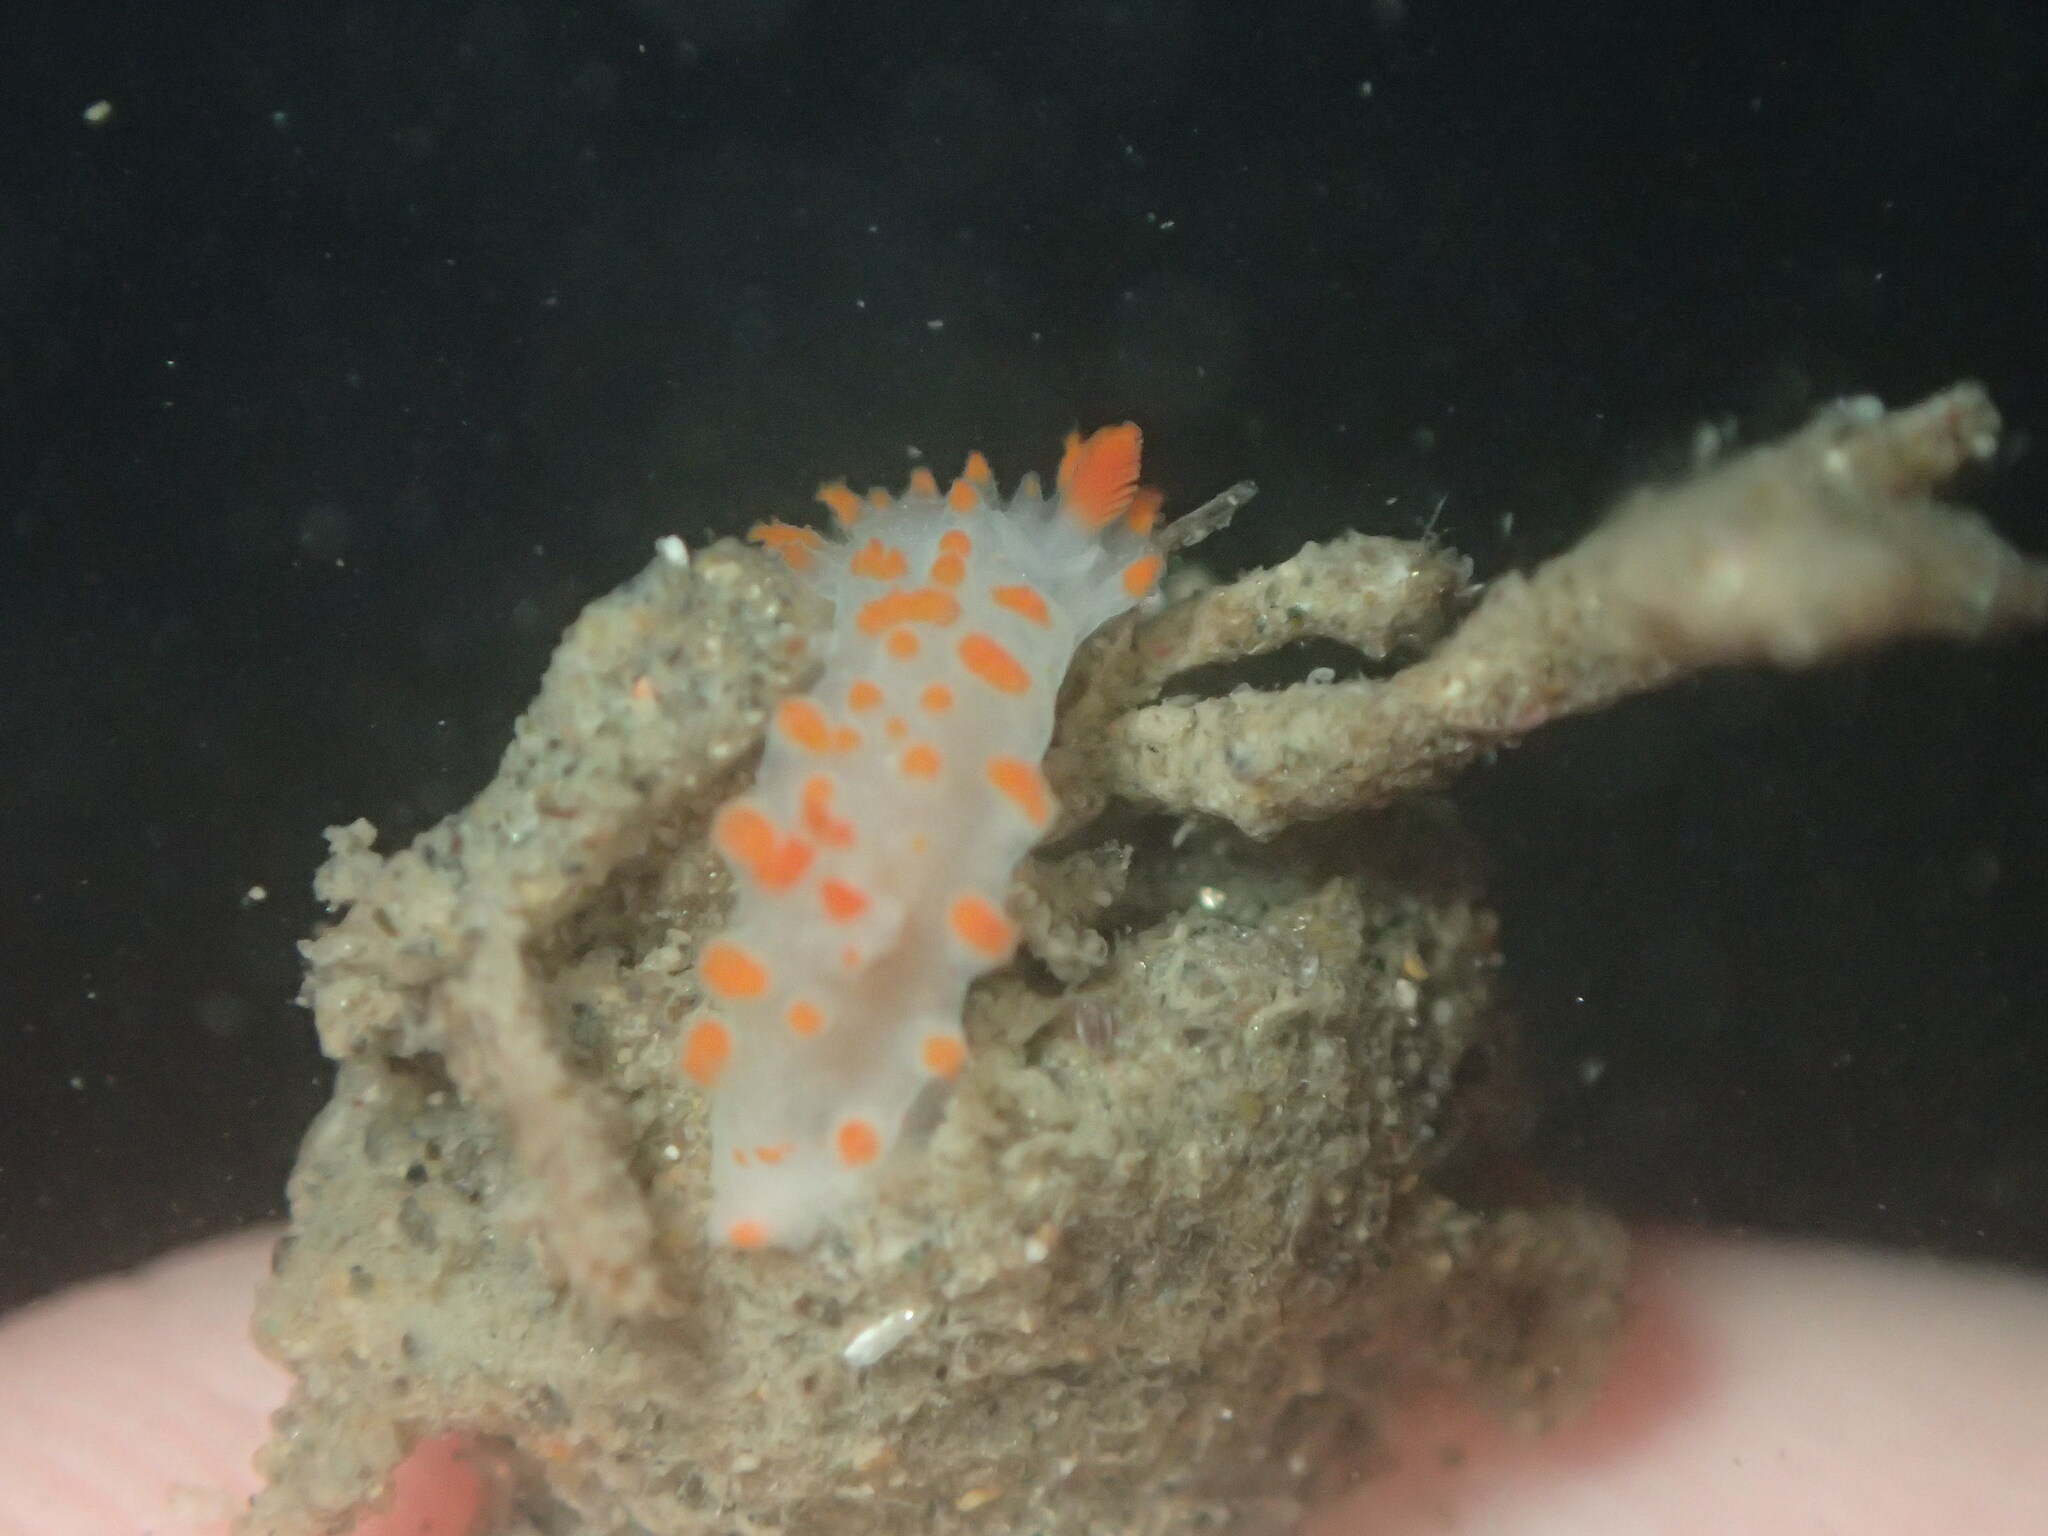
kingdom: Animalia
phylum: Mollusca
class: Gastropoda
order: Nudibranchia
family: Polyceridae
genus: Triopha
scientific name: Triopha catalinae
